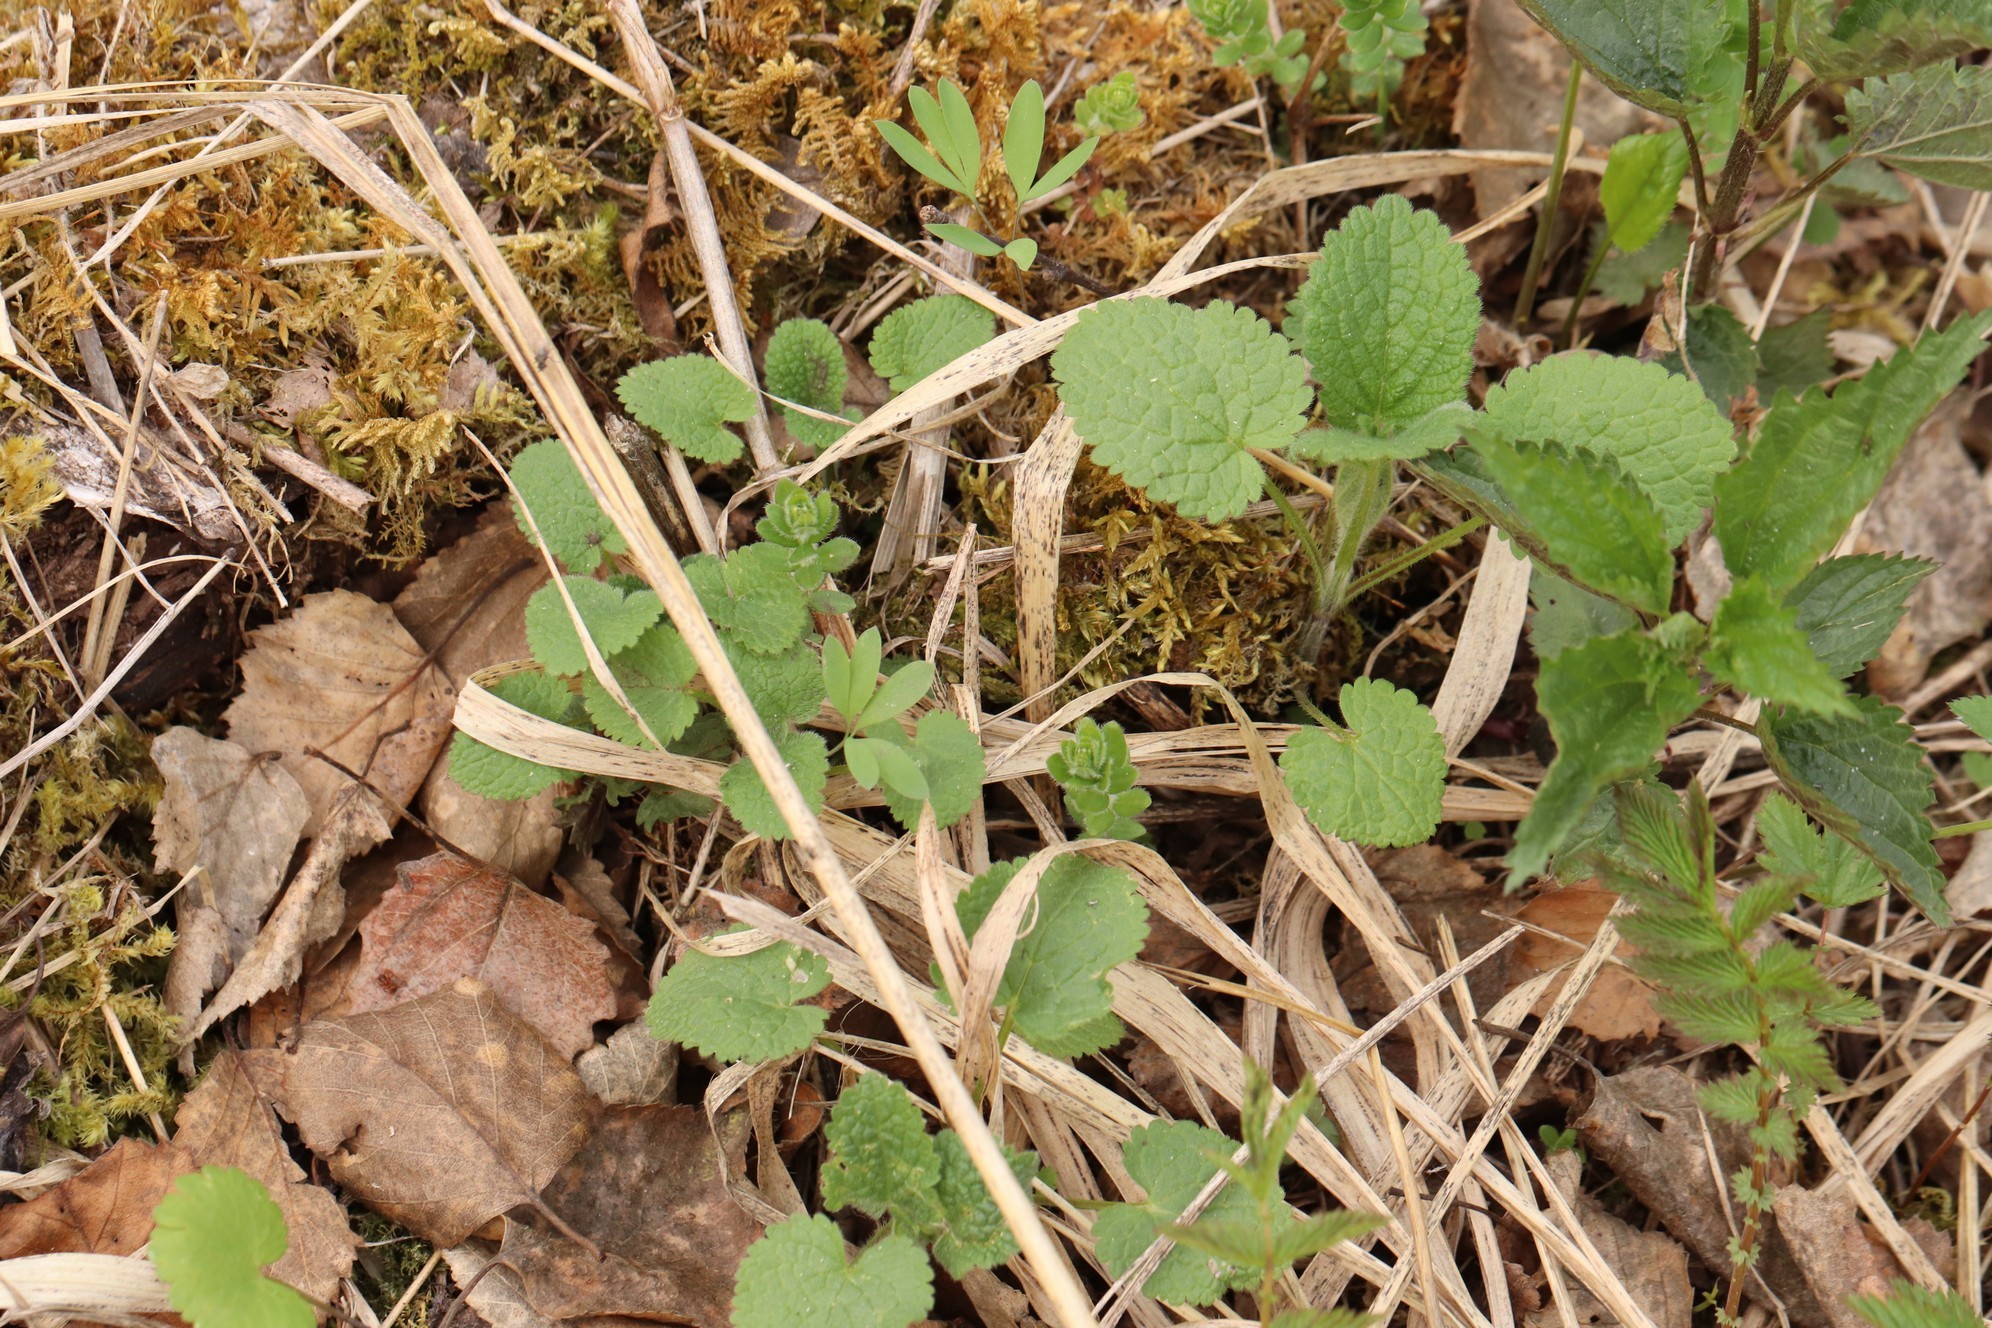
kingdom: Plantae
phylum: Tracheophyta
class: Magnoliopsida
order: Lamiales
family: Lamiaceae
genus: Lamium
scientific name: Lamium album
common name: White dead-nettle
